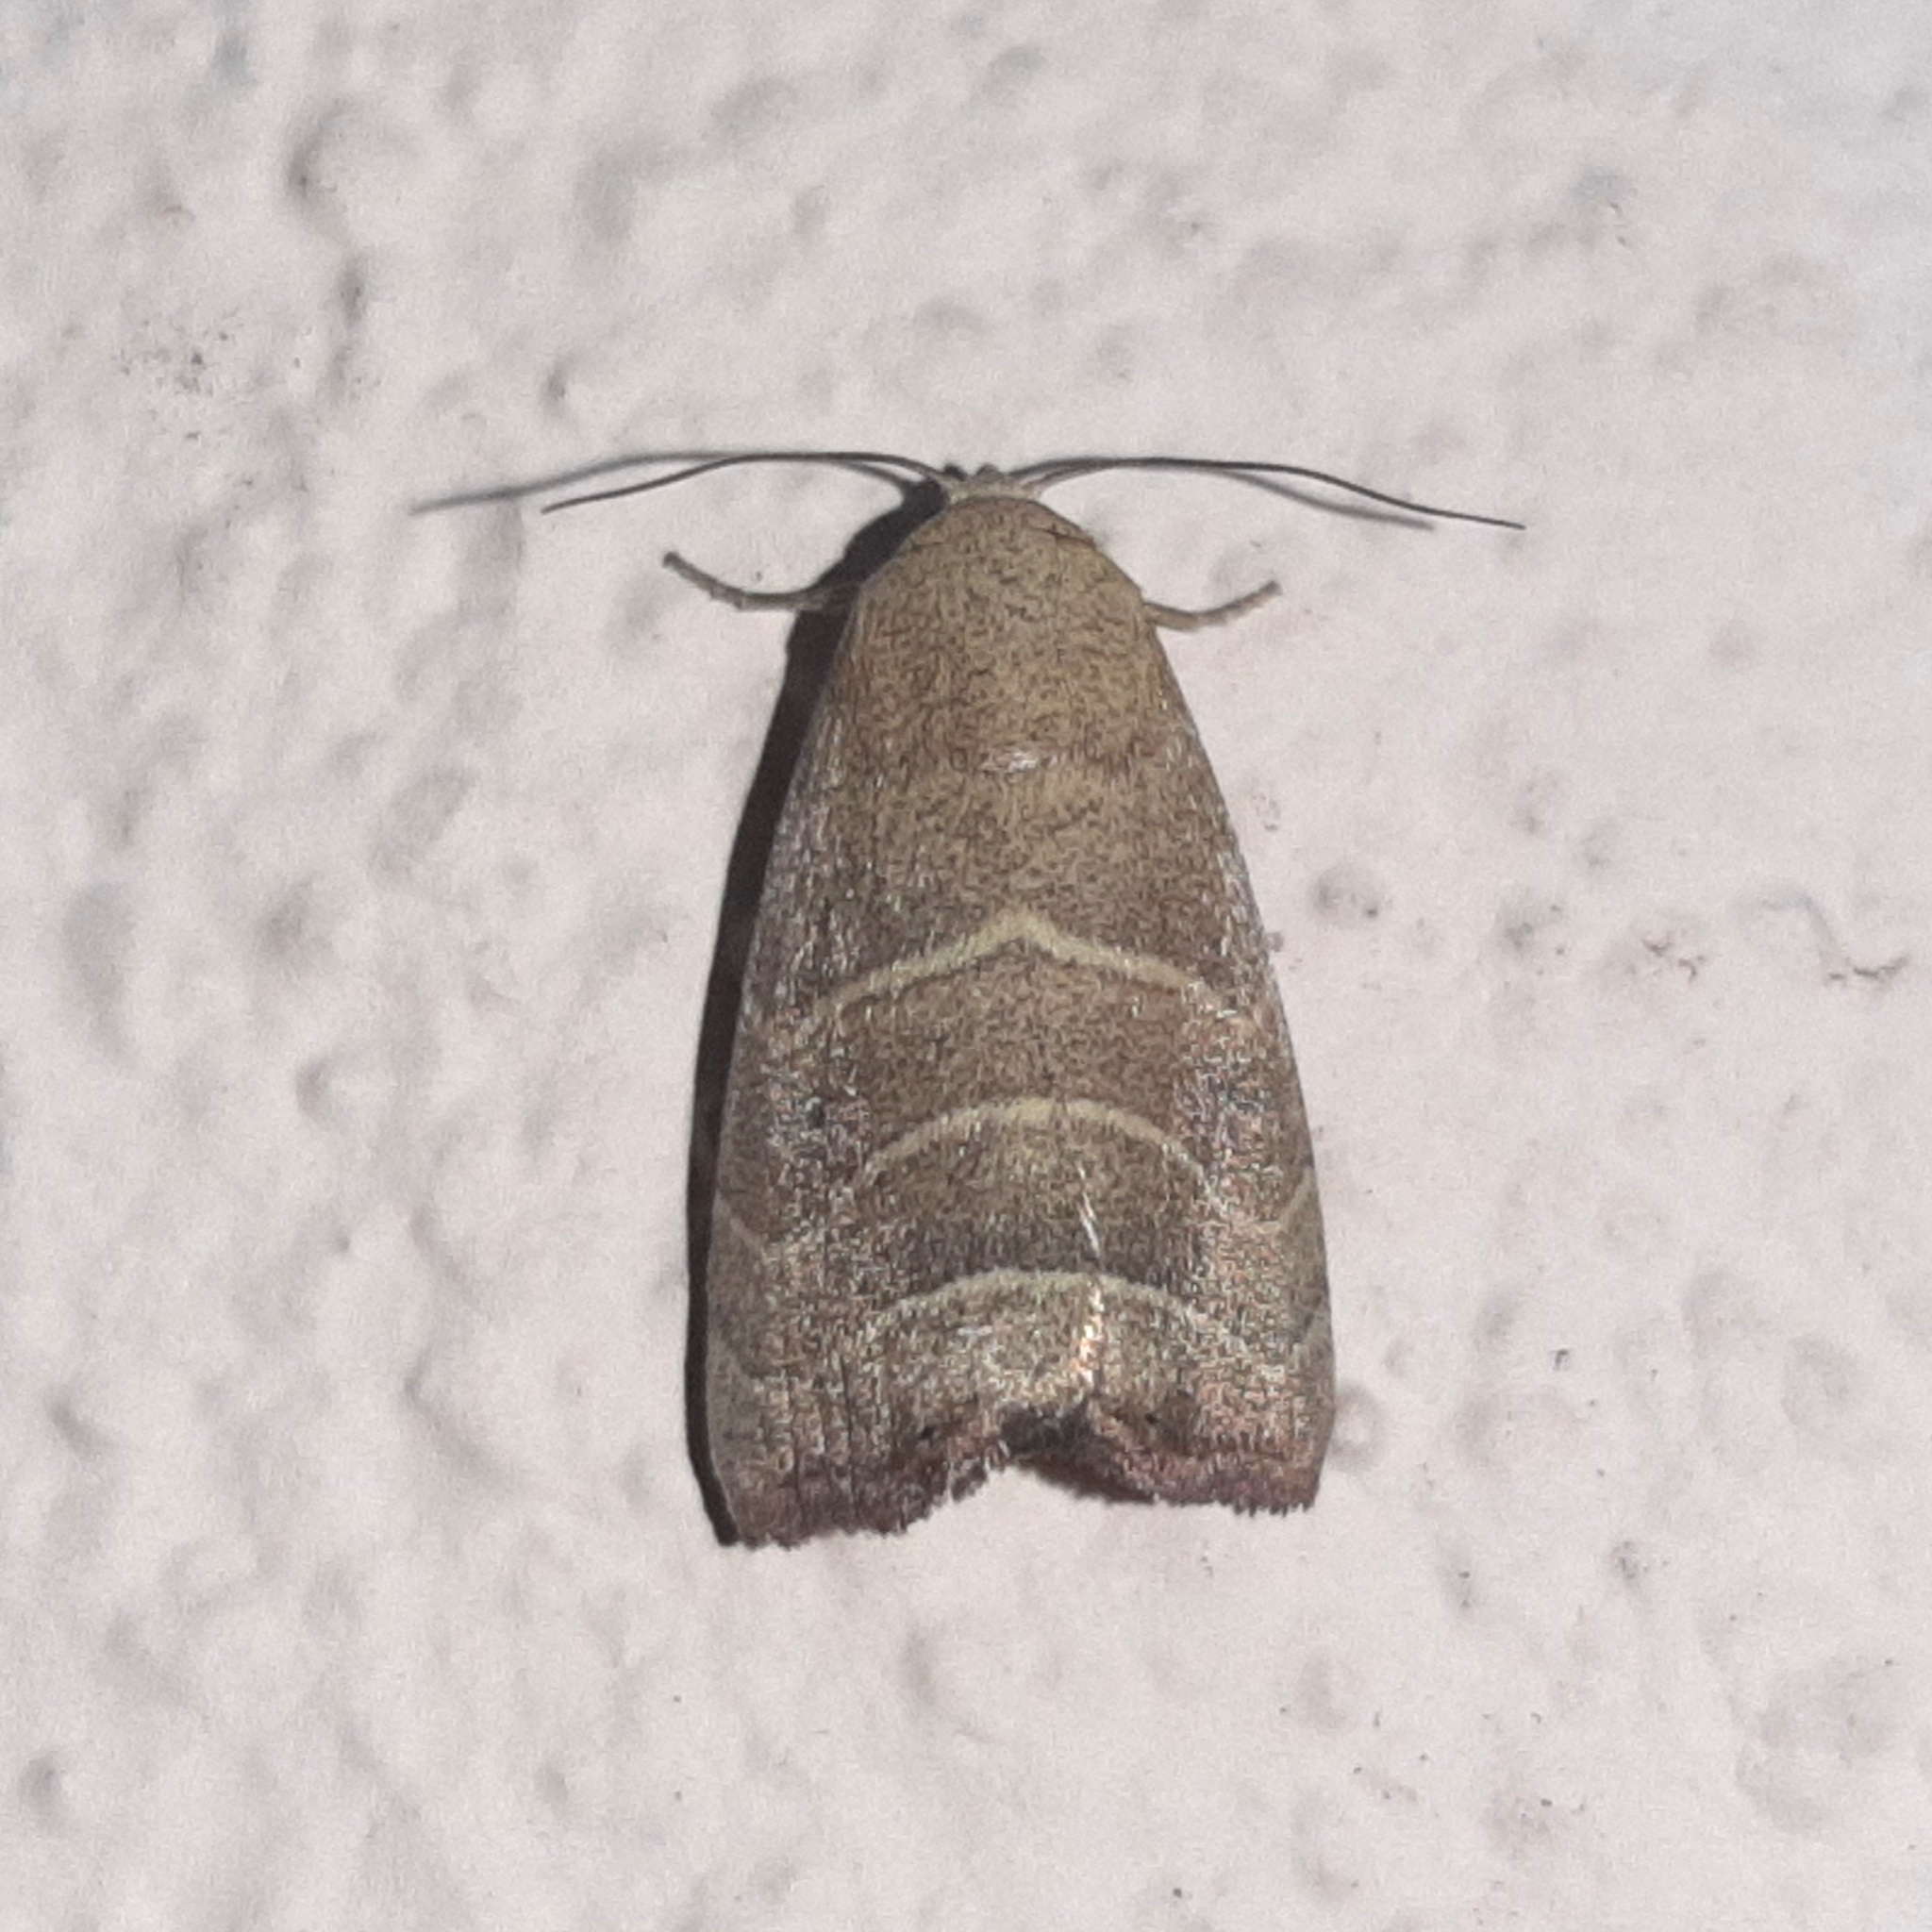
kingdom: Animalia
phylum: Arthropoda
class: Insecta
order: Lepidoptera
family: Noctuidae
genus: Bagisara
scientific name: Bagisara repanda
